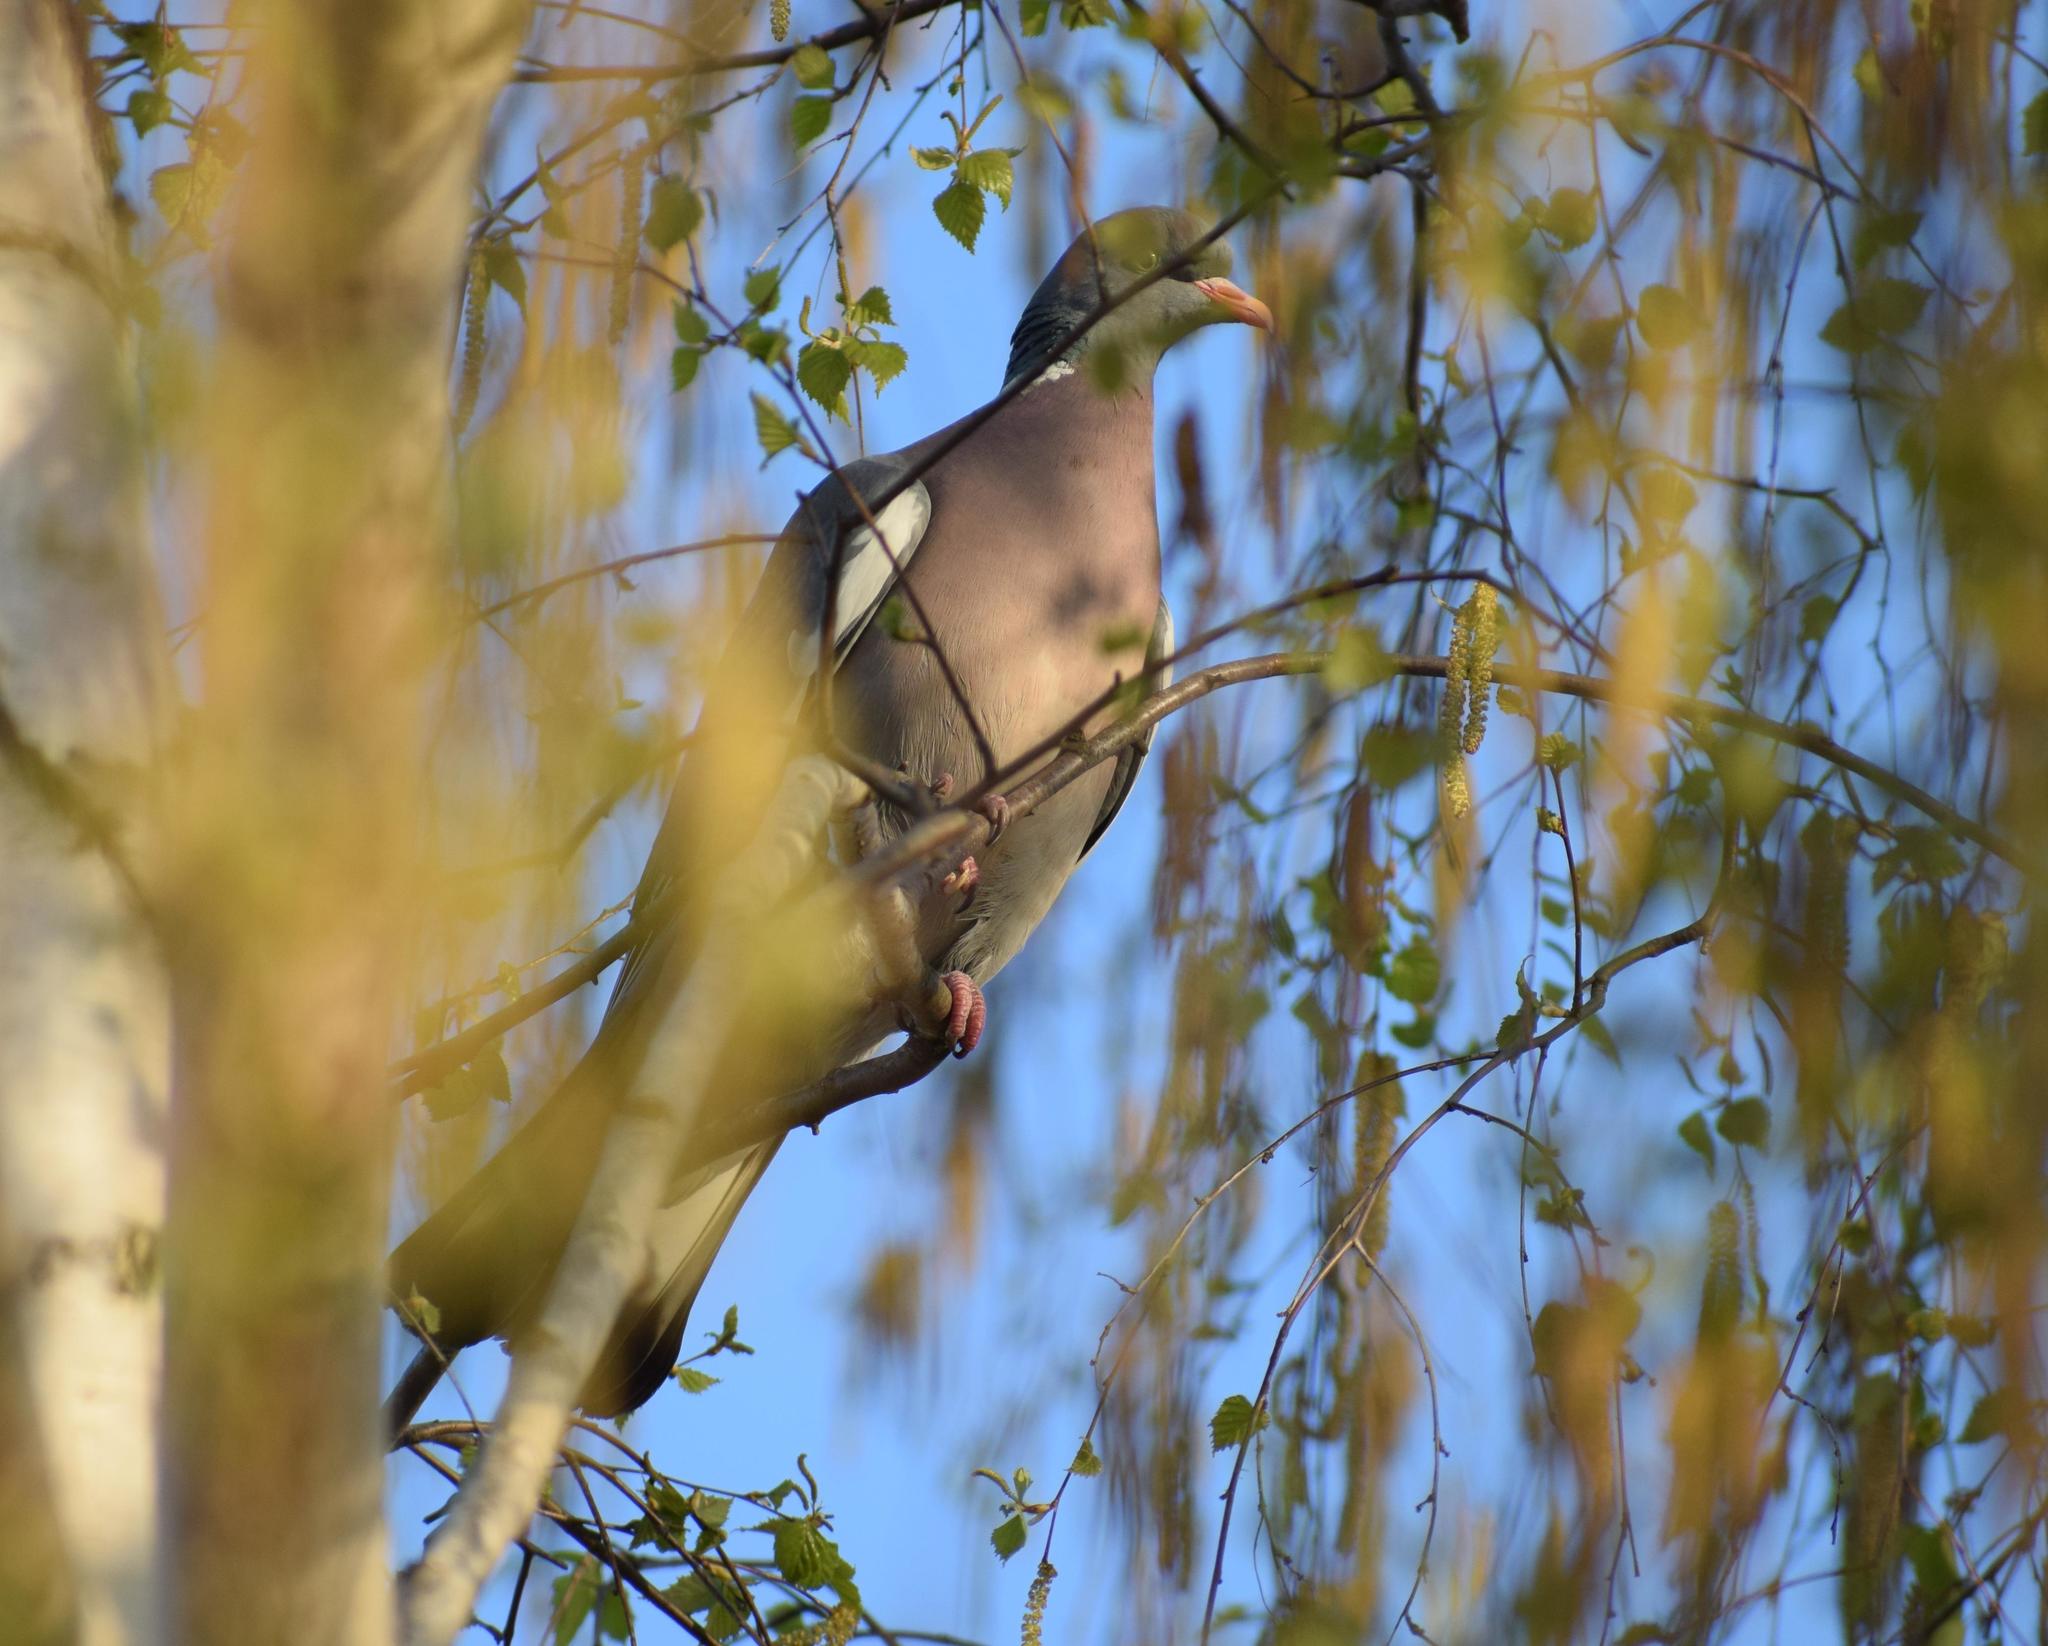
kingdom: Animalia
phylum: Chordata
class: Aves
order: Columbiformes
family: Columbidae
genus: Columba
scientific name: Columba palumbus
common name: Common wood pigeon
